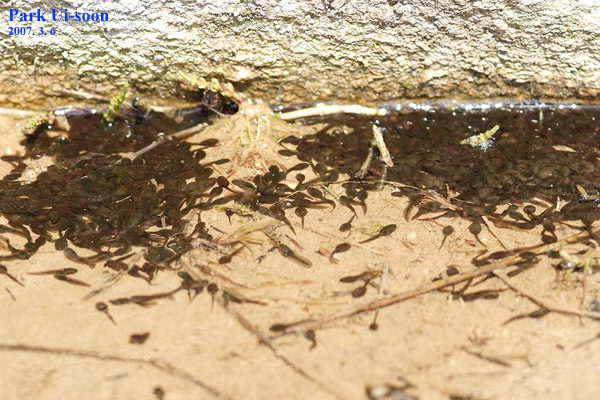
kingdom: Animalia
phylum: Chordata
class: Amphibia
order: Anura
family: Ranidae
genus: Rana
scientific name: Rana uenoi
